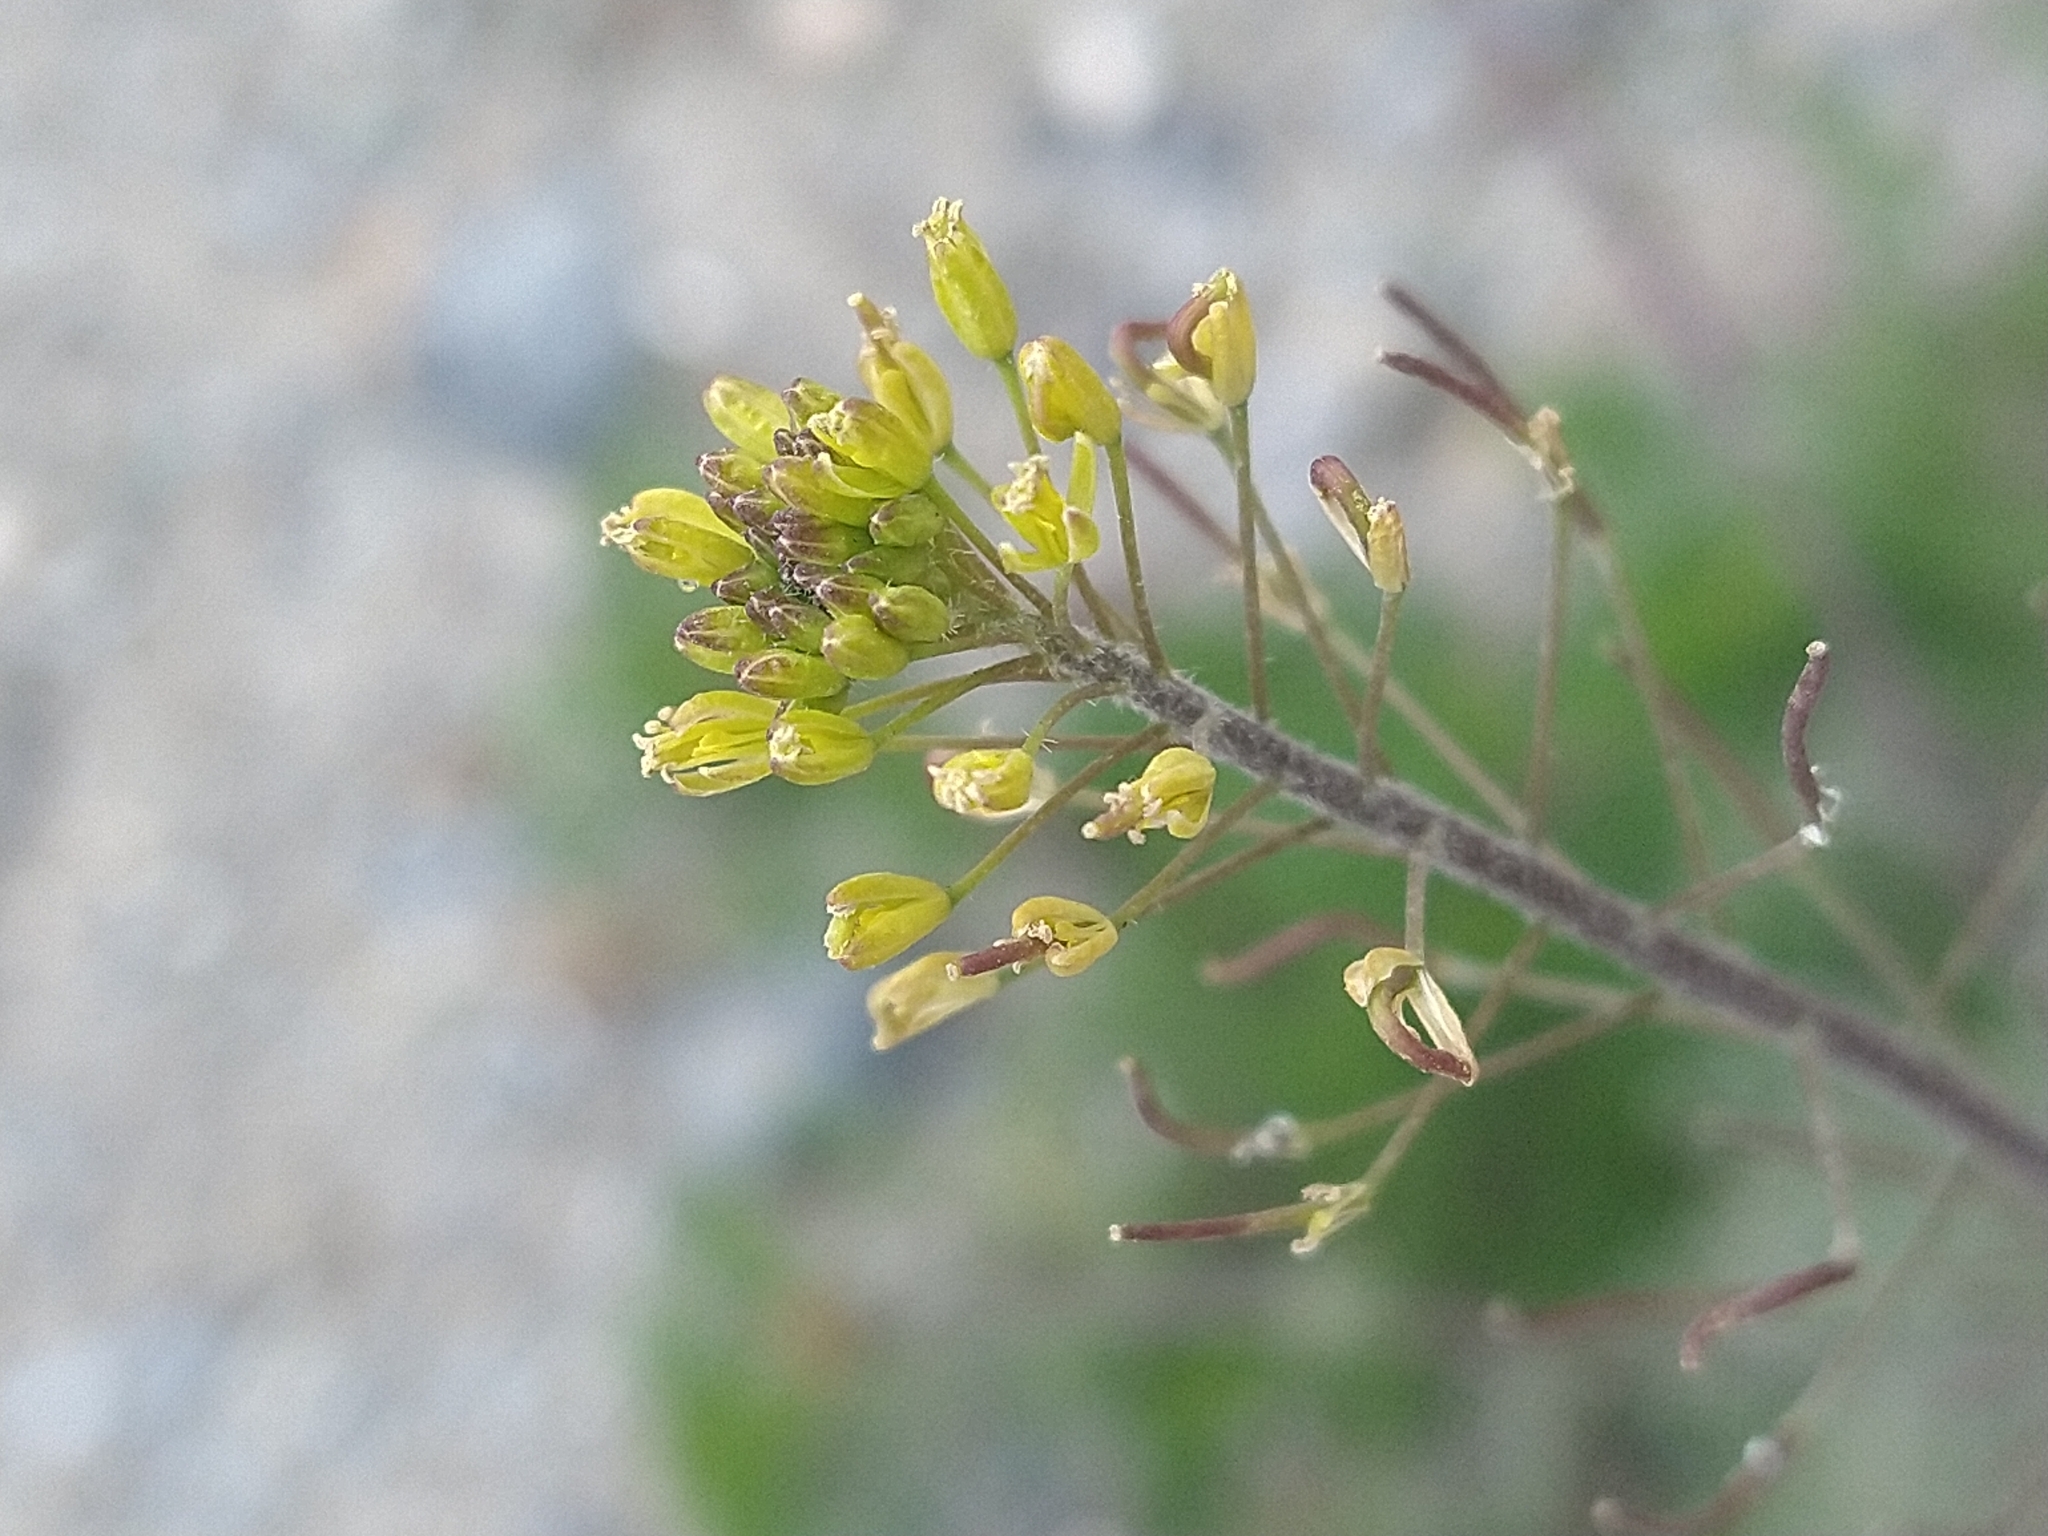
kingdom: Plantae
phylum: Tracheophyta
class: Magnoliopsida
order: Brassicales
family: Brassicaceae
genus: Descurainia
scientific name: Descurainia sophia
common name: Flixweed
